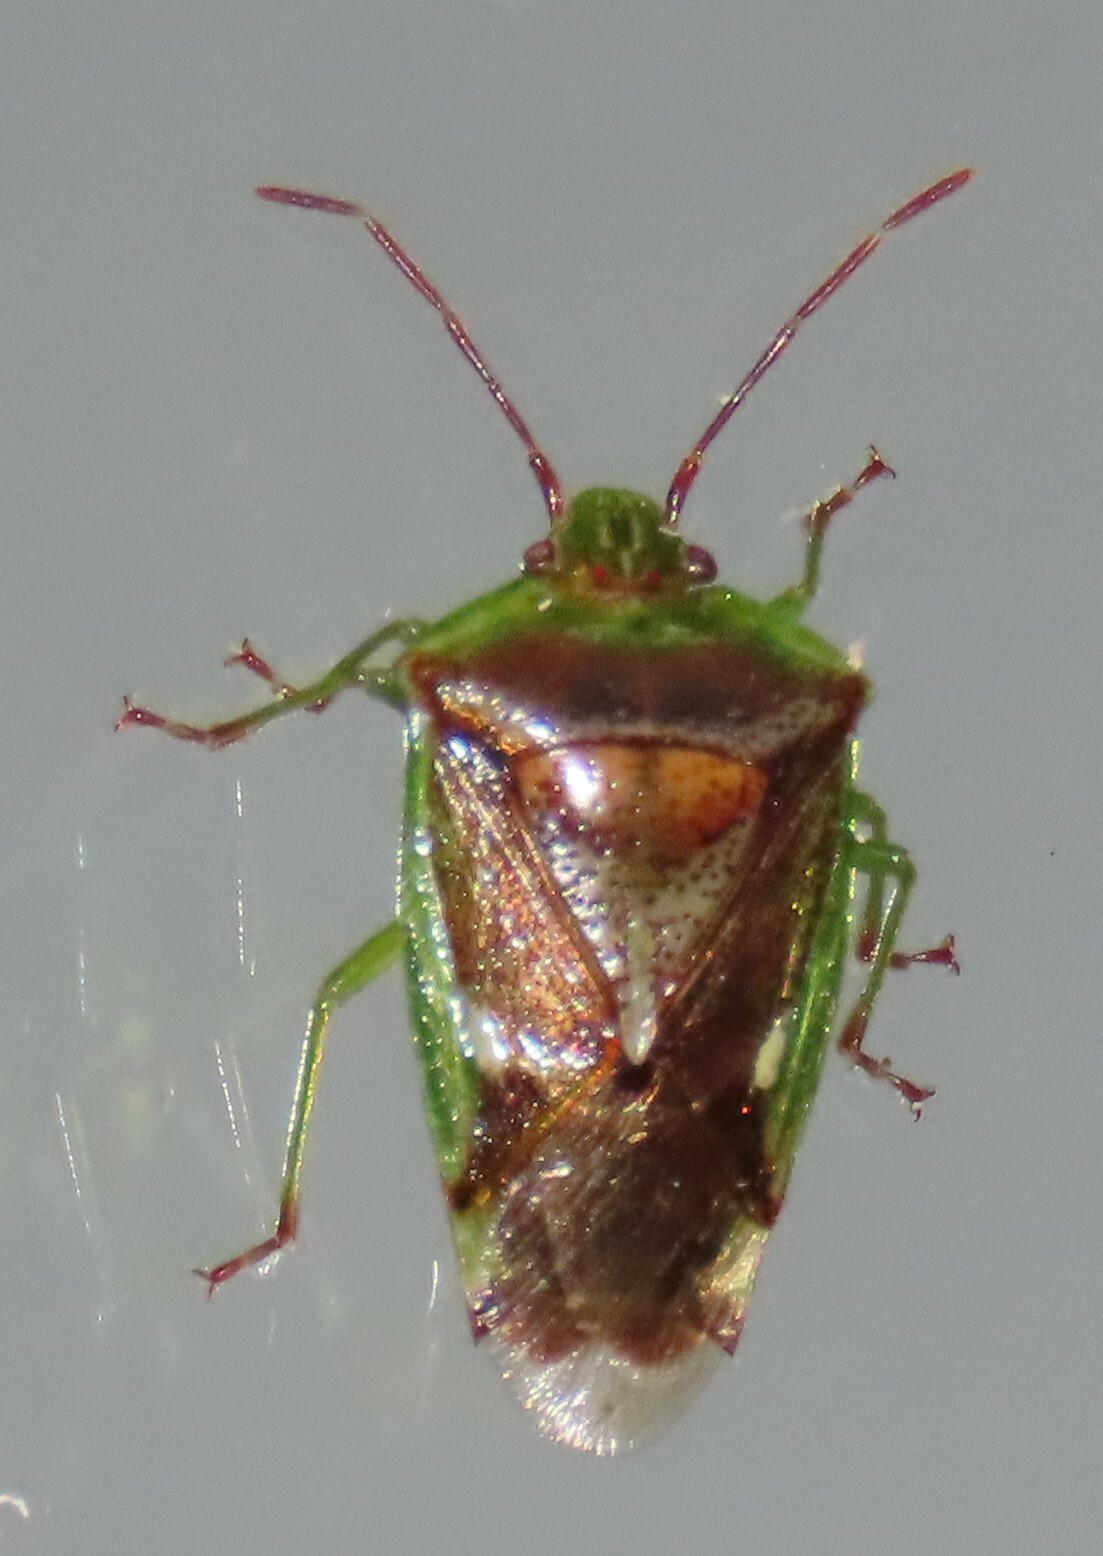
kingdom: Animalia
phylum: Arthropoda
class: Insecta
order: Hemiptera
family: Acanthosomatidae
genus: Oncacontias
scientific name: Oncacontias vittatus
